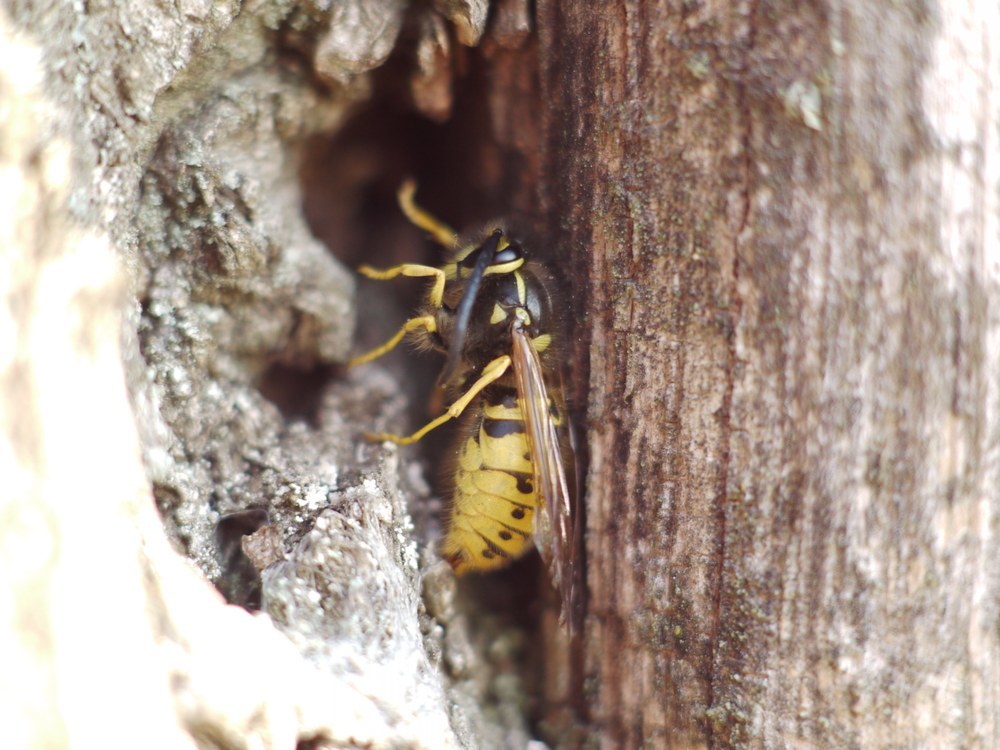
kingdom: Animalia
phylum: Arthropoda
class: Insecta
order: Hymenoptera
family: Vespidae
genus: Vespula
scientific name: Vespula germanica
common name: German wasp
